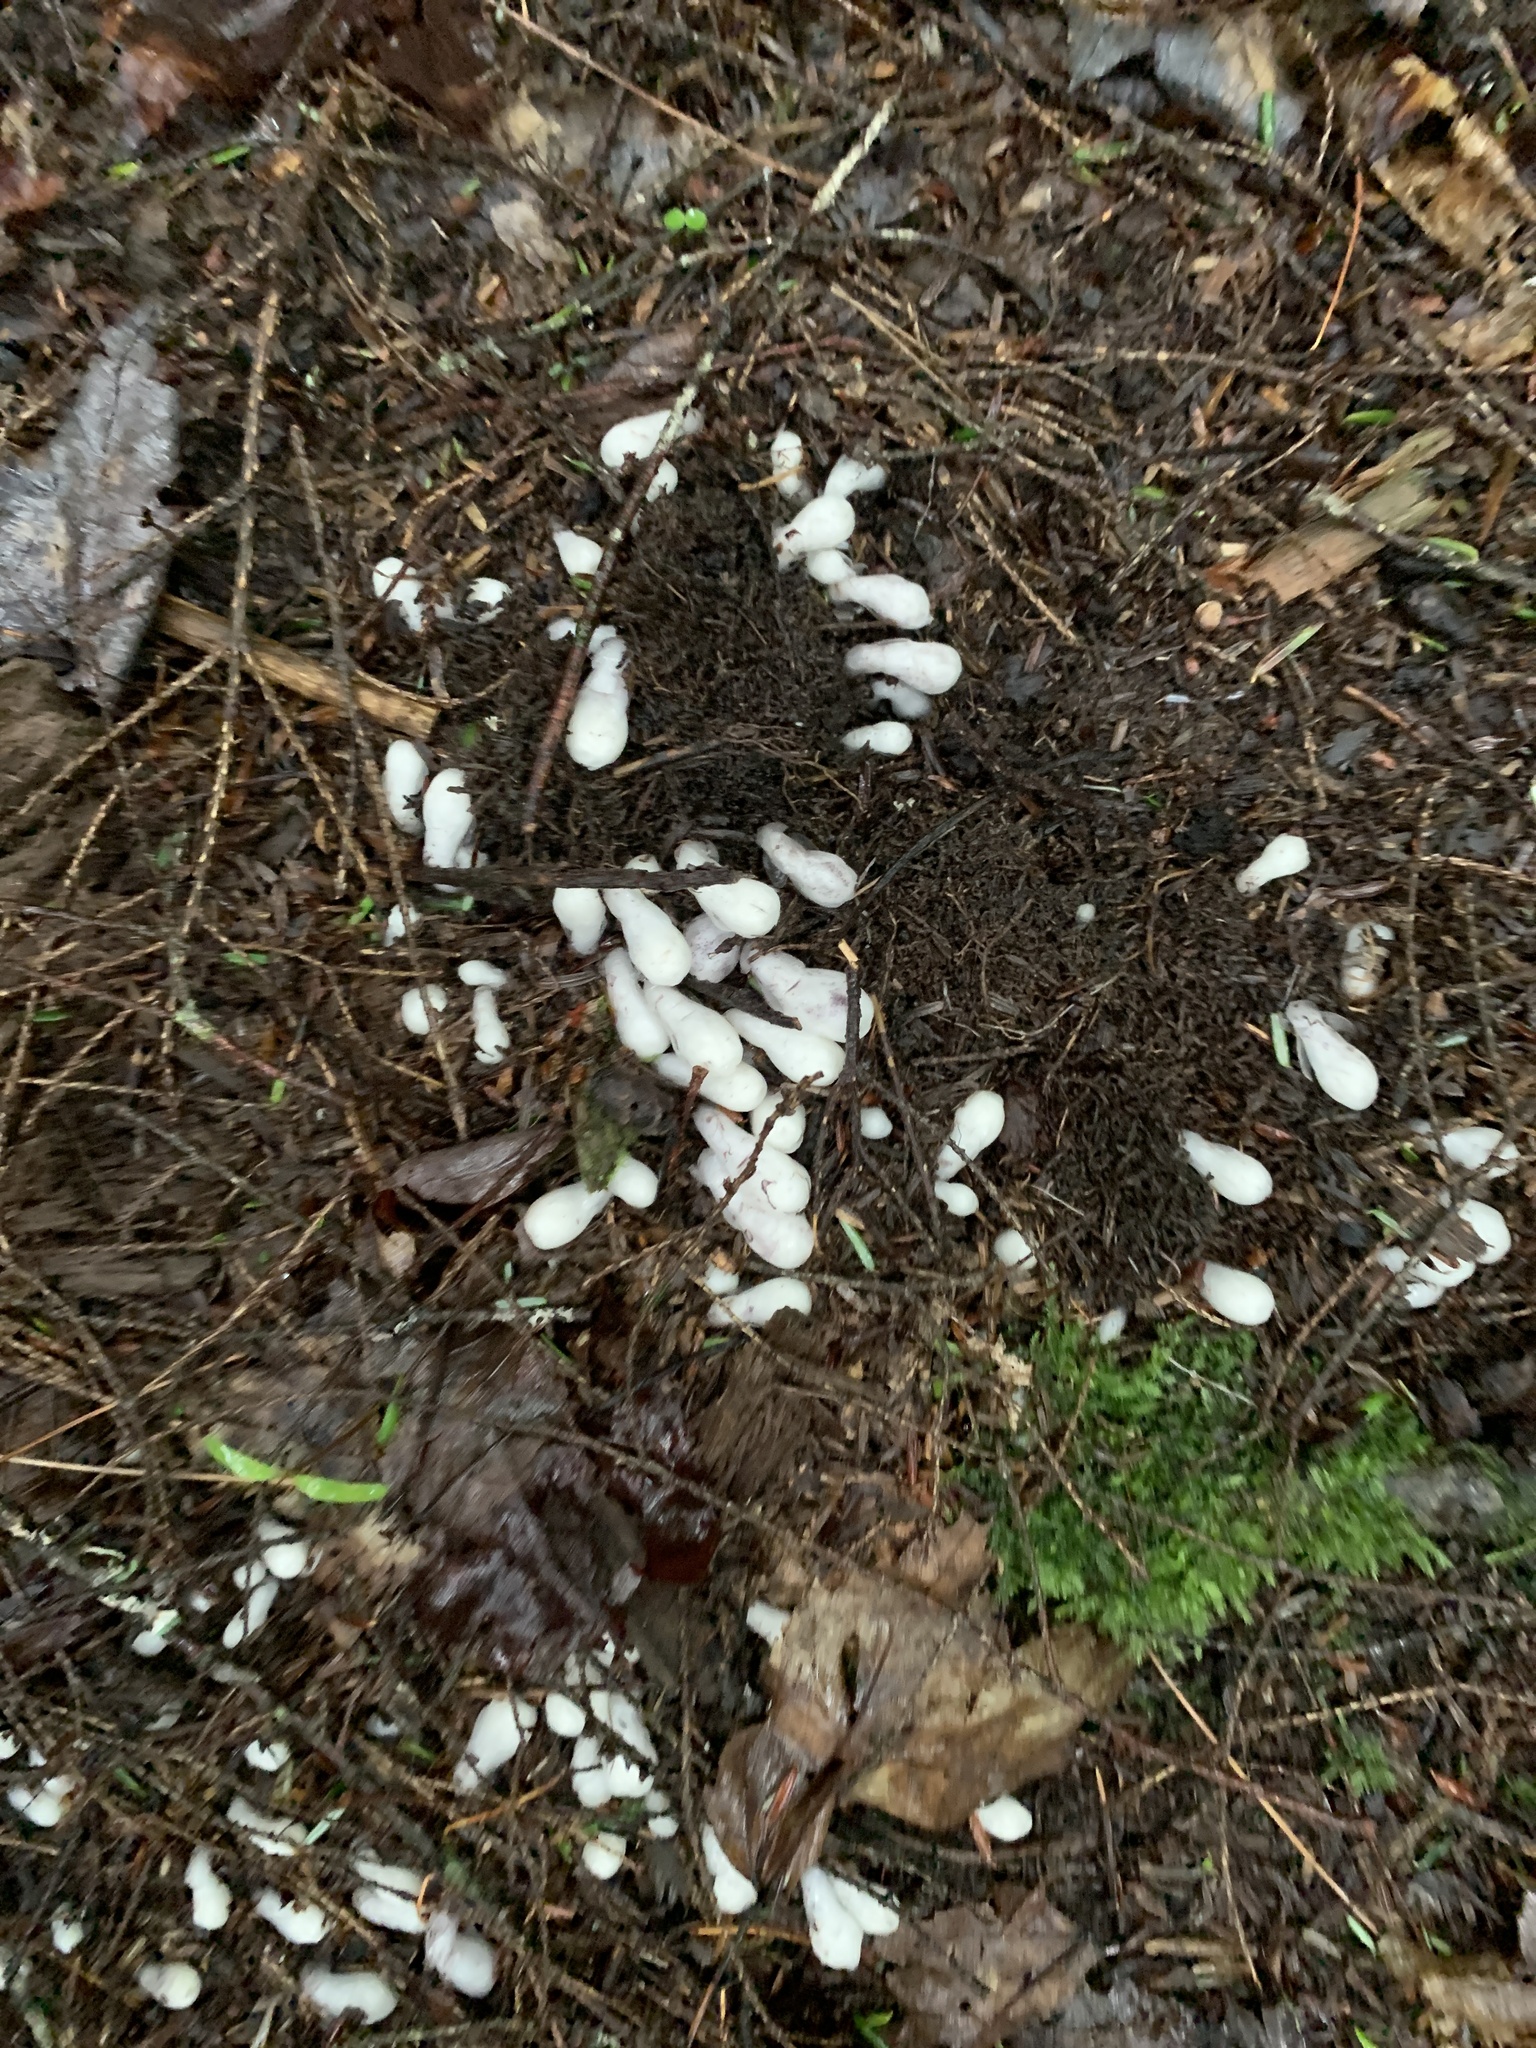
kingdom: Plantae
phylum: Tracheophyta
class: Magnoliopsida
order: Ericales
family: Ericaceae
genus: Monotropa
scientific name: Monotropa uniflora
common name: Convulsion root
